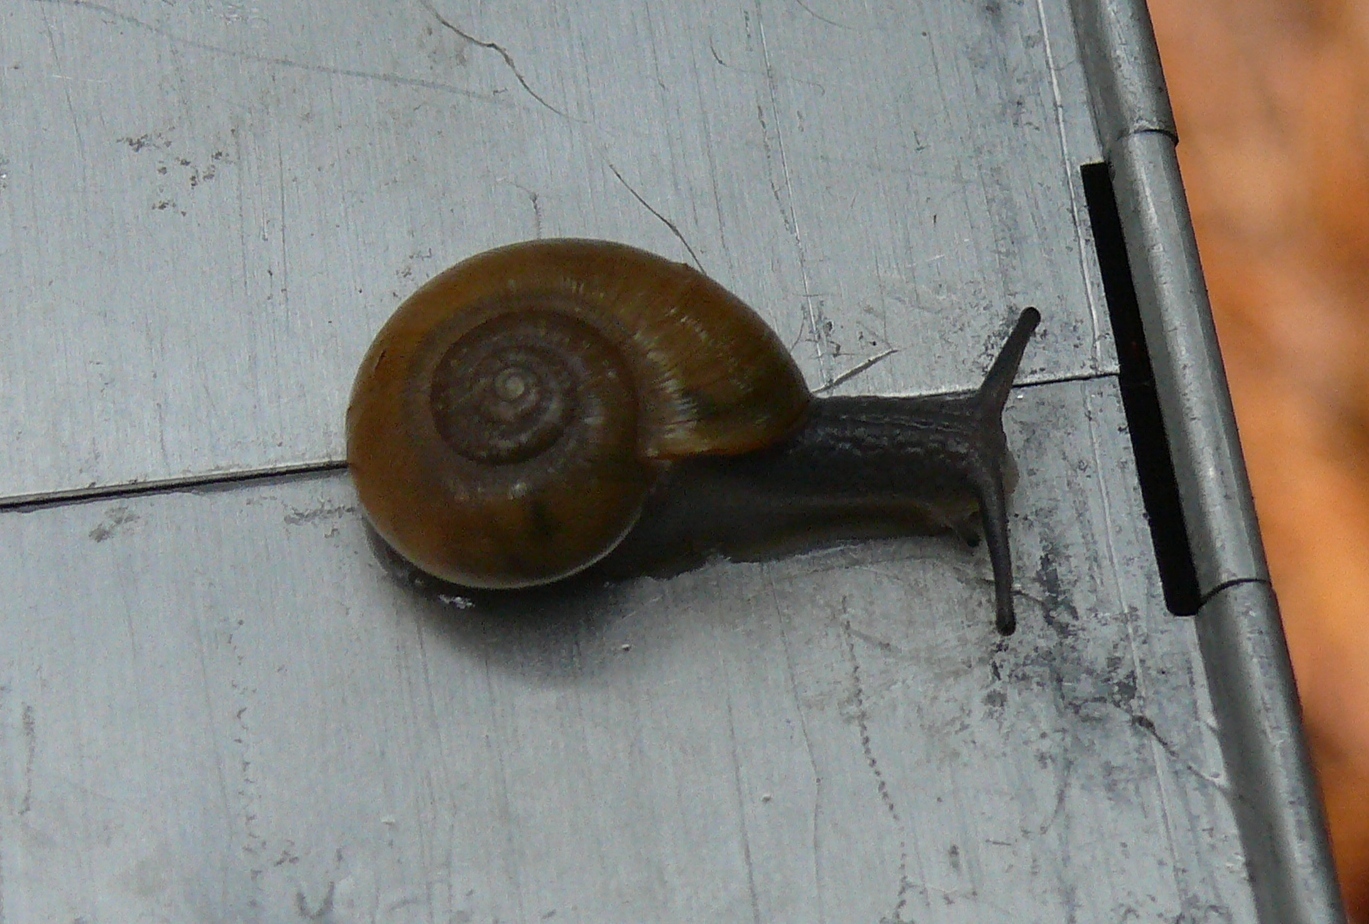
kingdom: Animalia
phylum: Mollusca
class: Gastropoda
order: Stylommatophora
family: Rhytididae
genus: Nata
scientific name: Nata vernicosa
